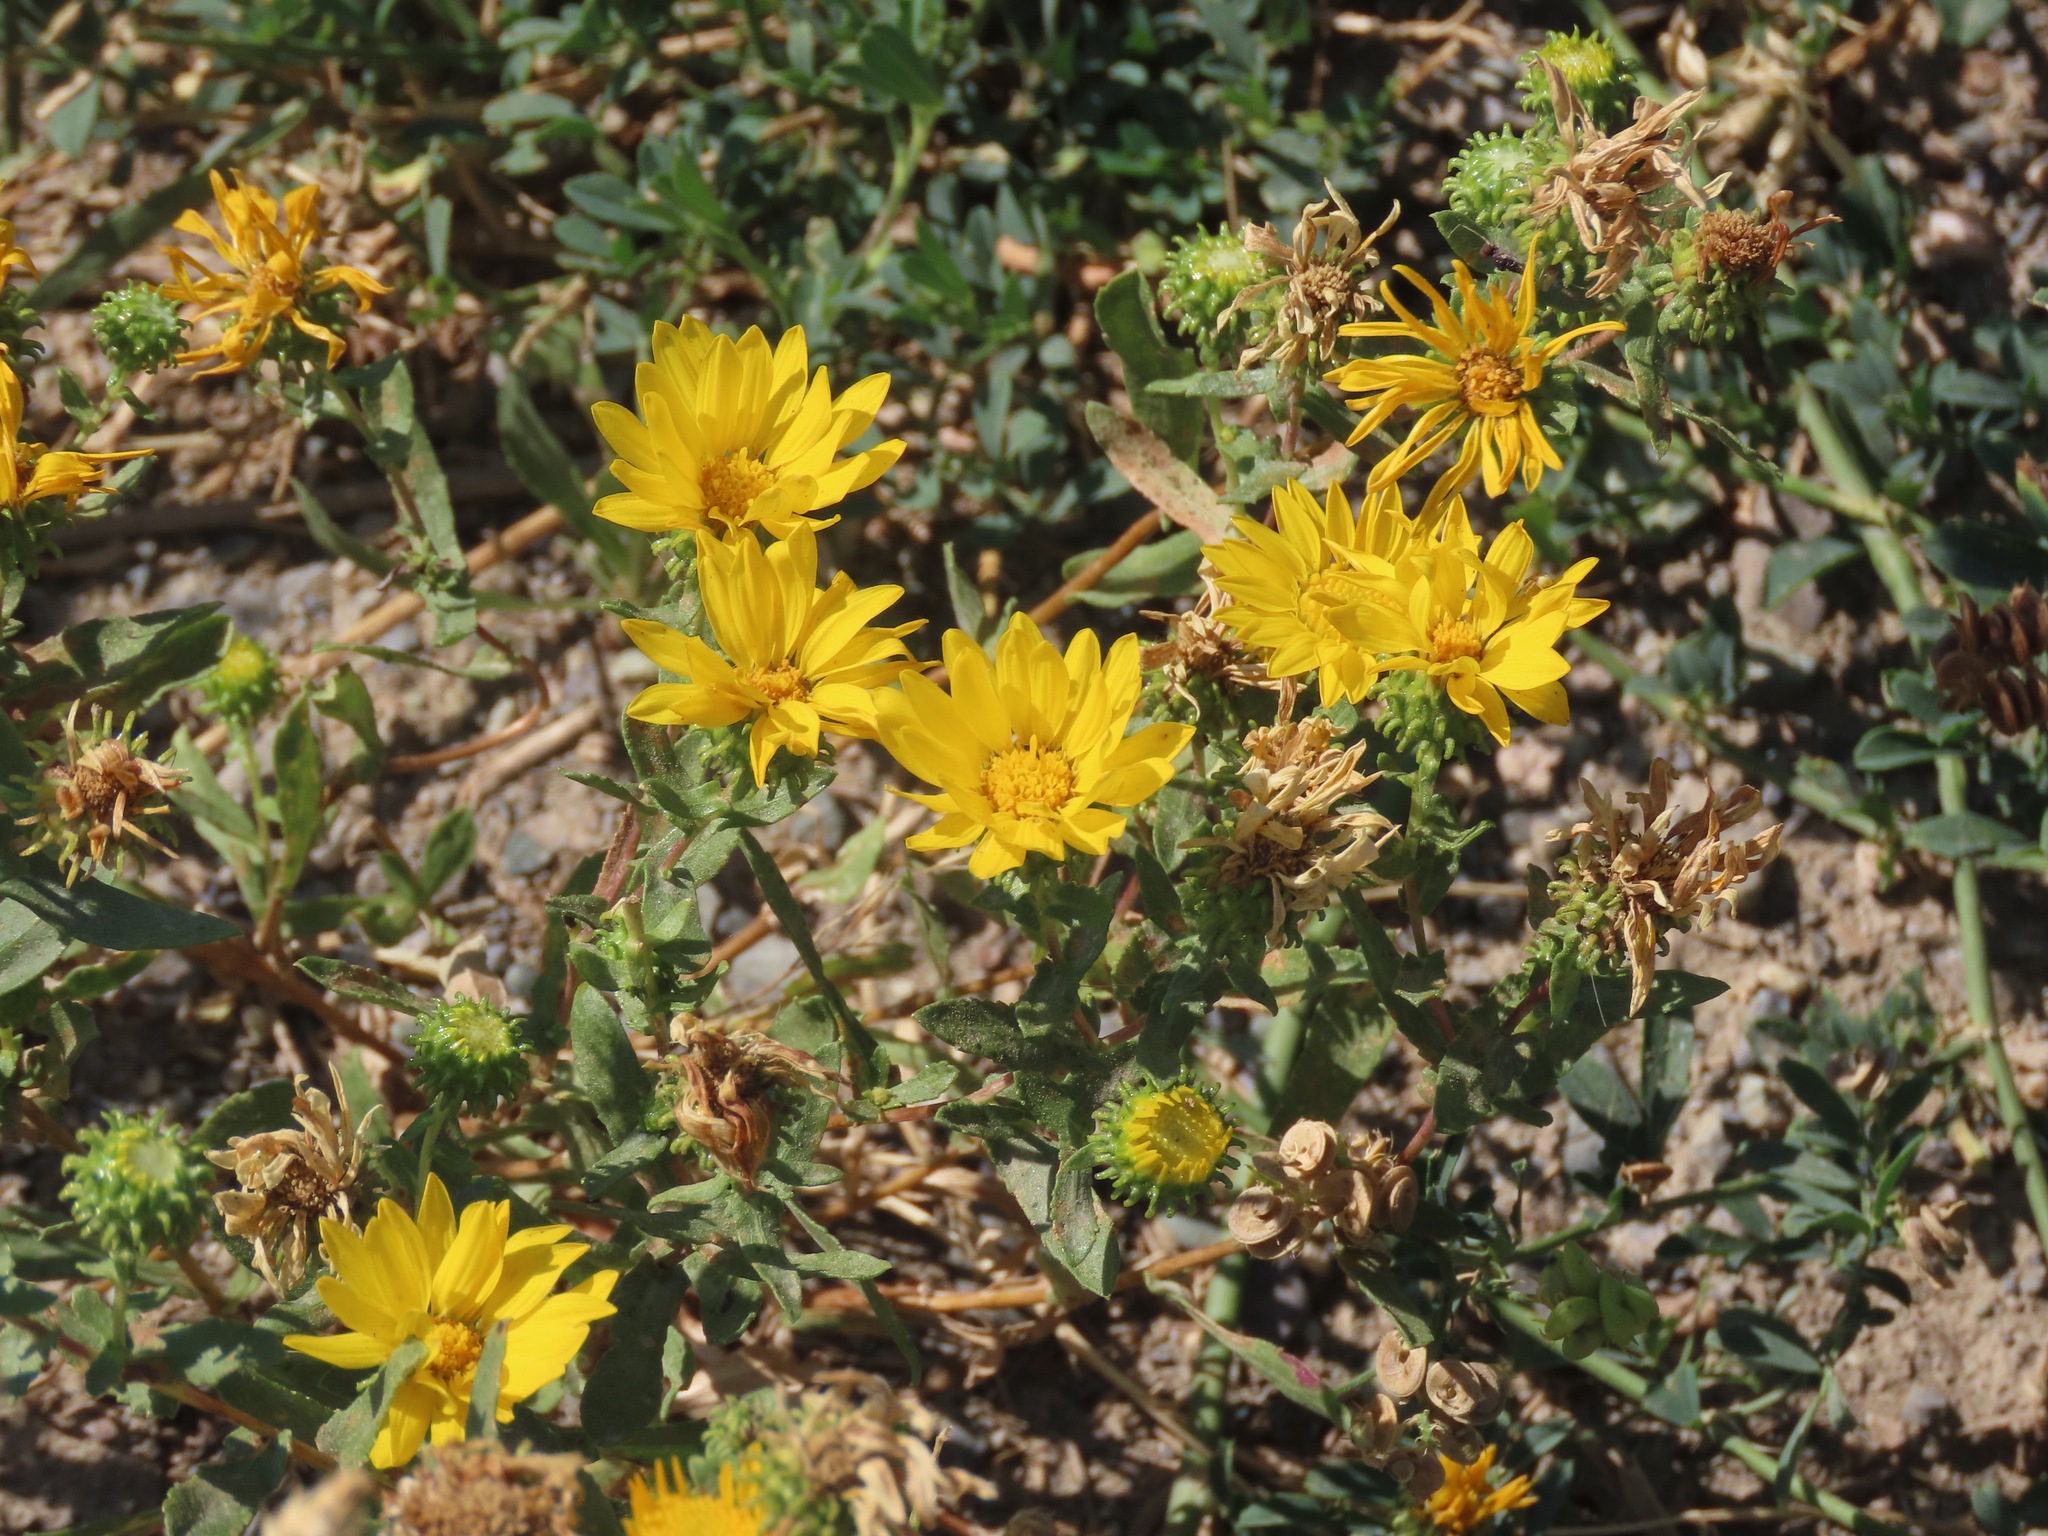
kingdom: Plantae
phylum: Tracheophyta
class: Magnoliopsida
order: Asterales
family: Asteraceae
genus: Grindelia
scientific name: Grindelia squarrosa
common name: Curly-cup gumweed
